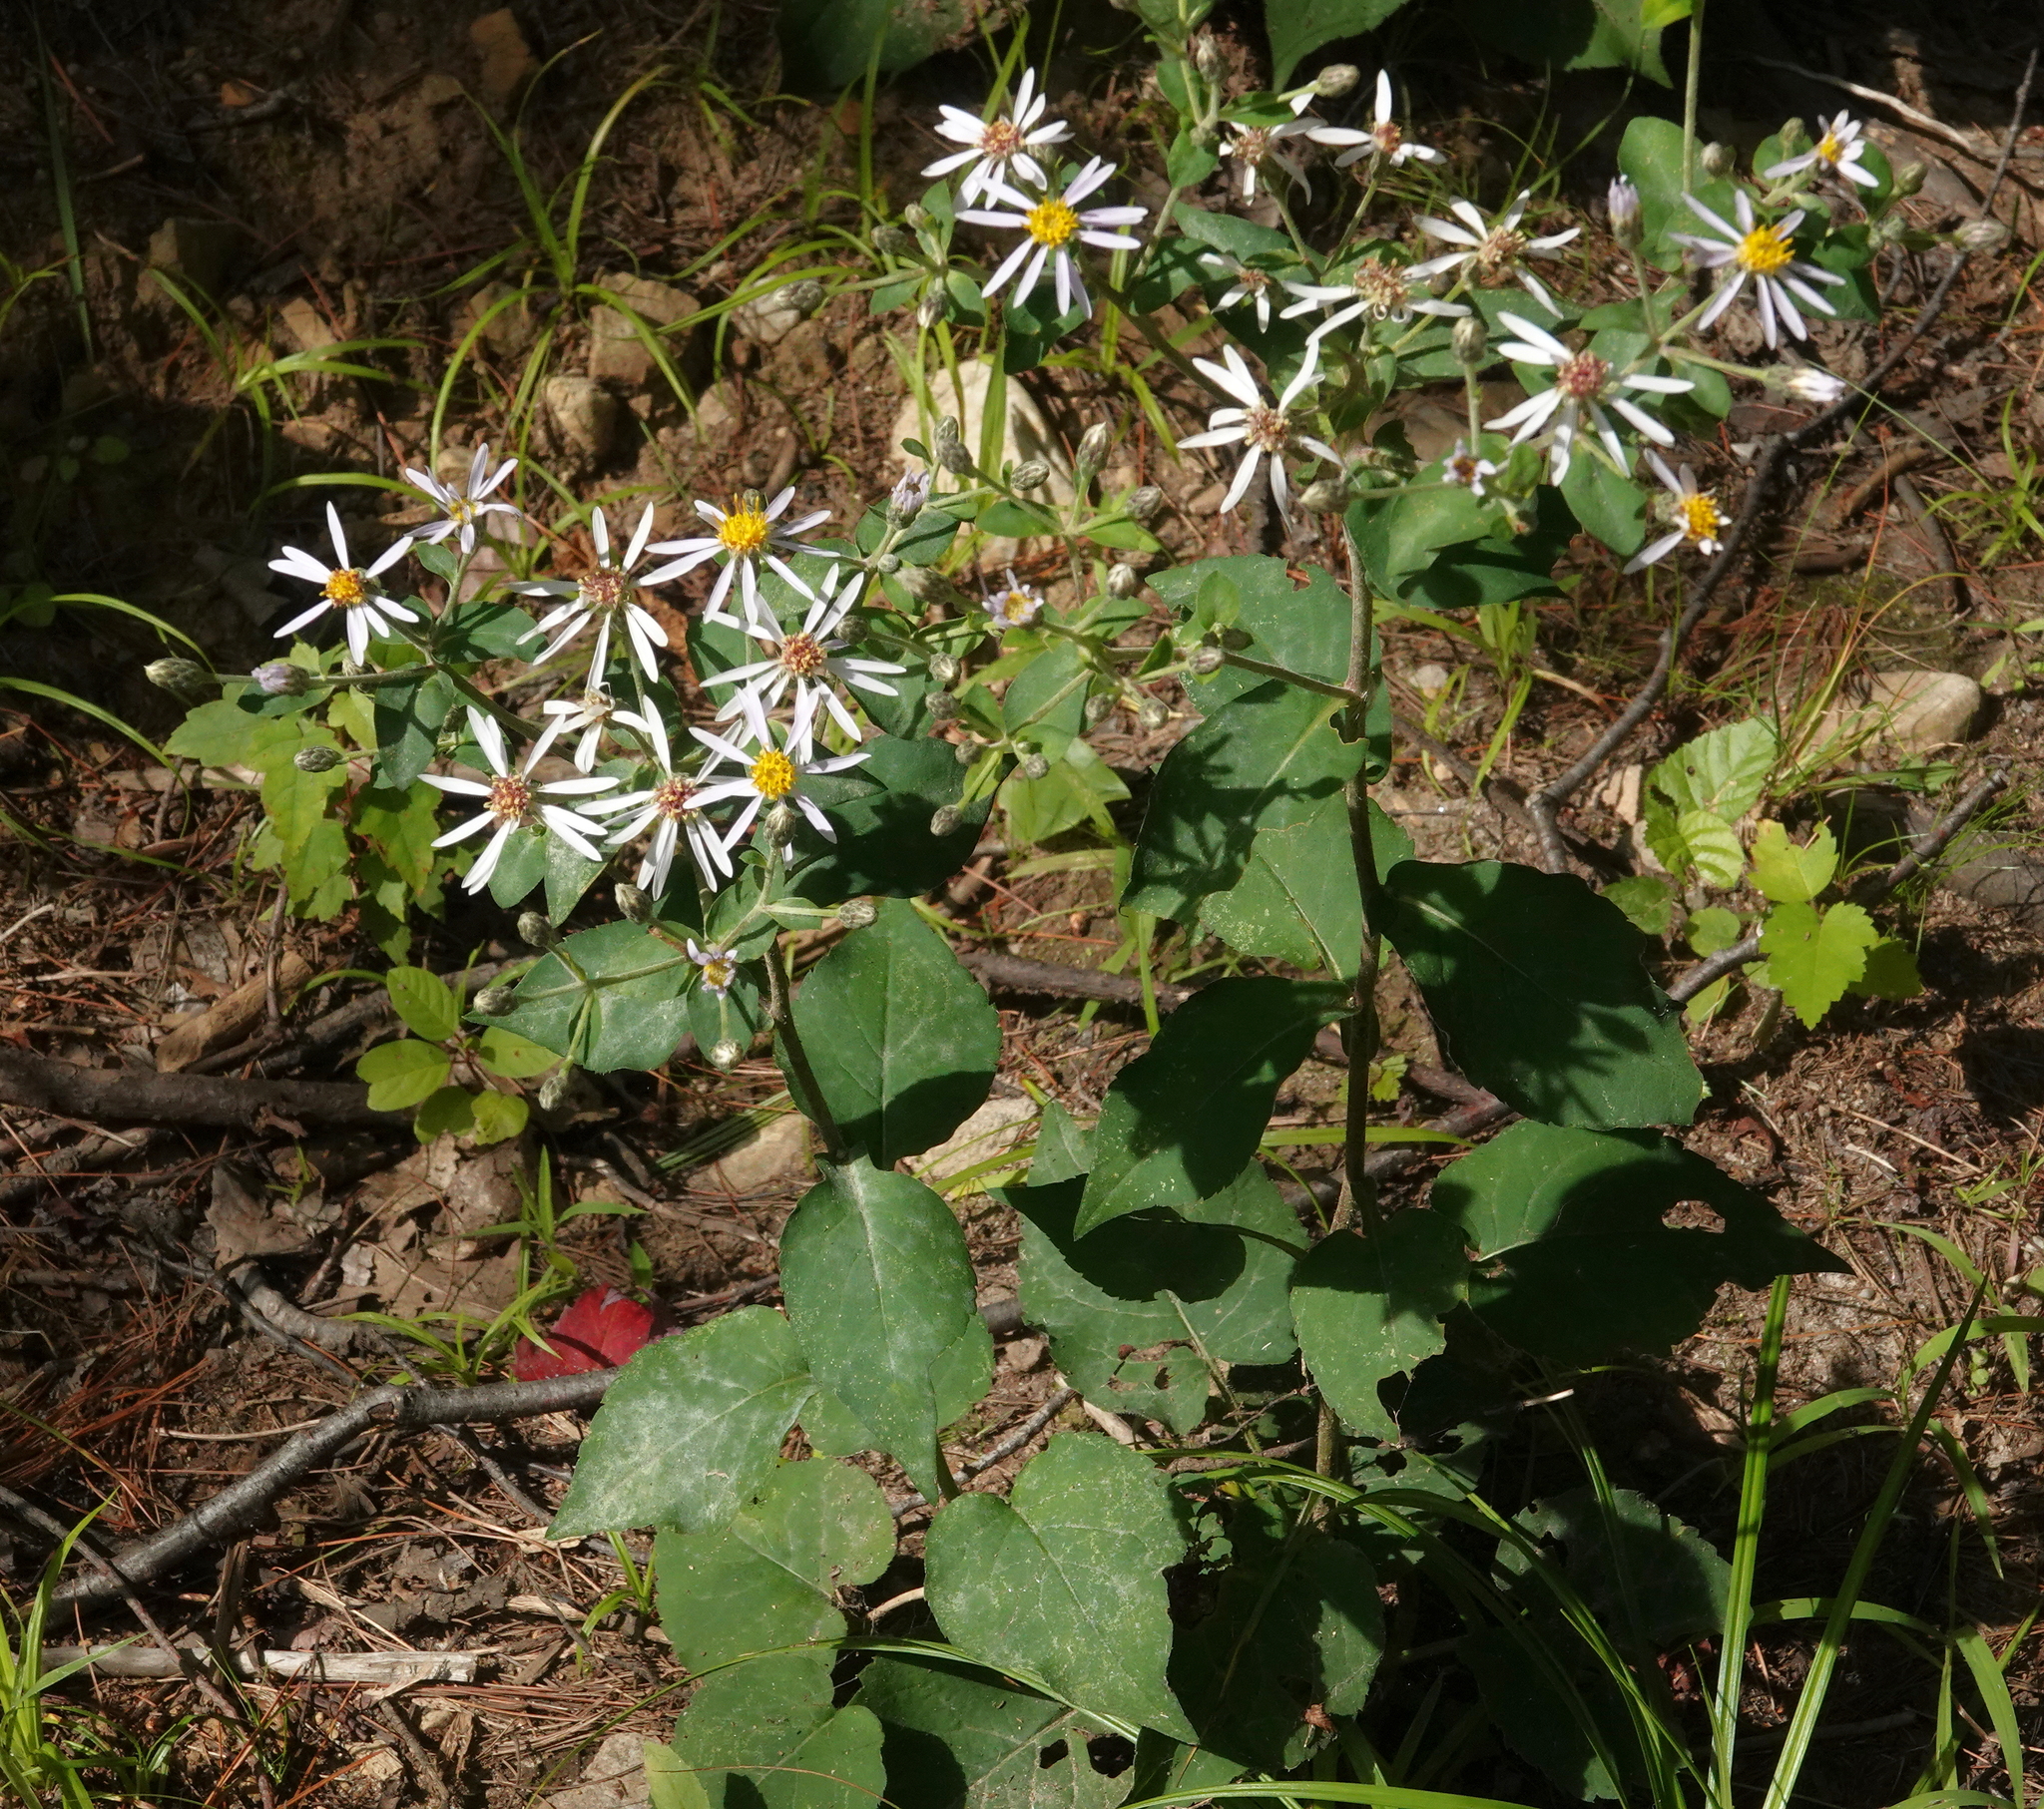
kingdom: Plantae
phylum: Tracheophyta
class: Magnoliopsida
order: Asterales
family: Asteraceae
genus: Eurybia
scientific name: Eurybia macrophylla
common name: Big-leaved aster
